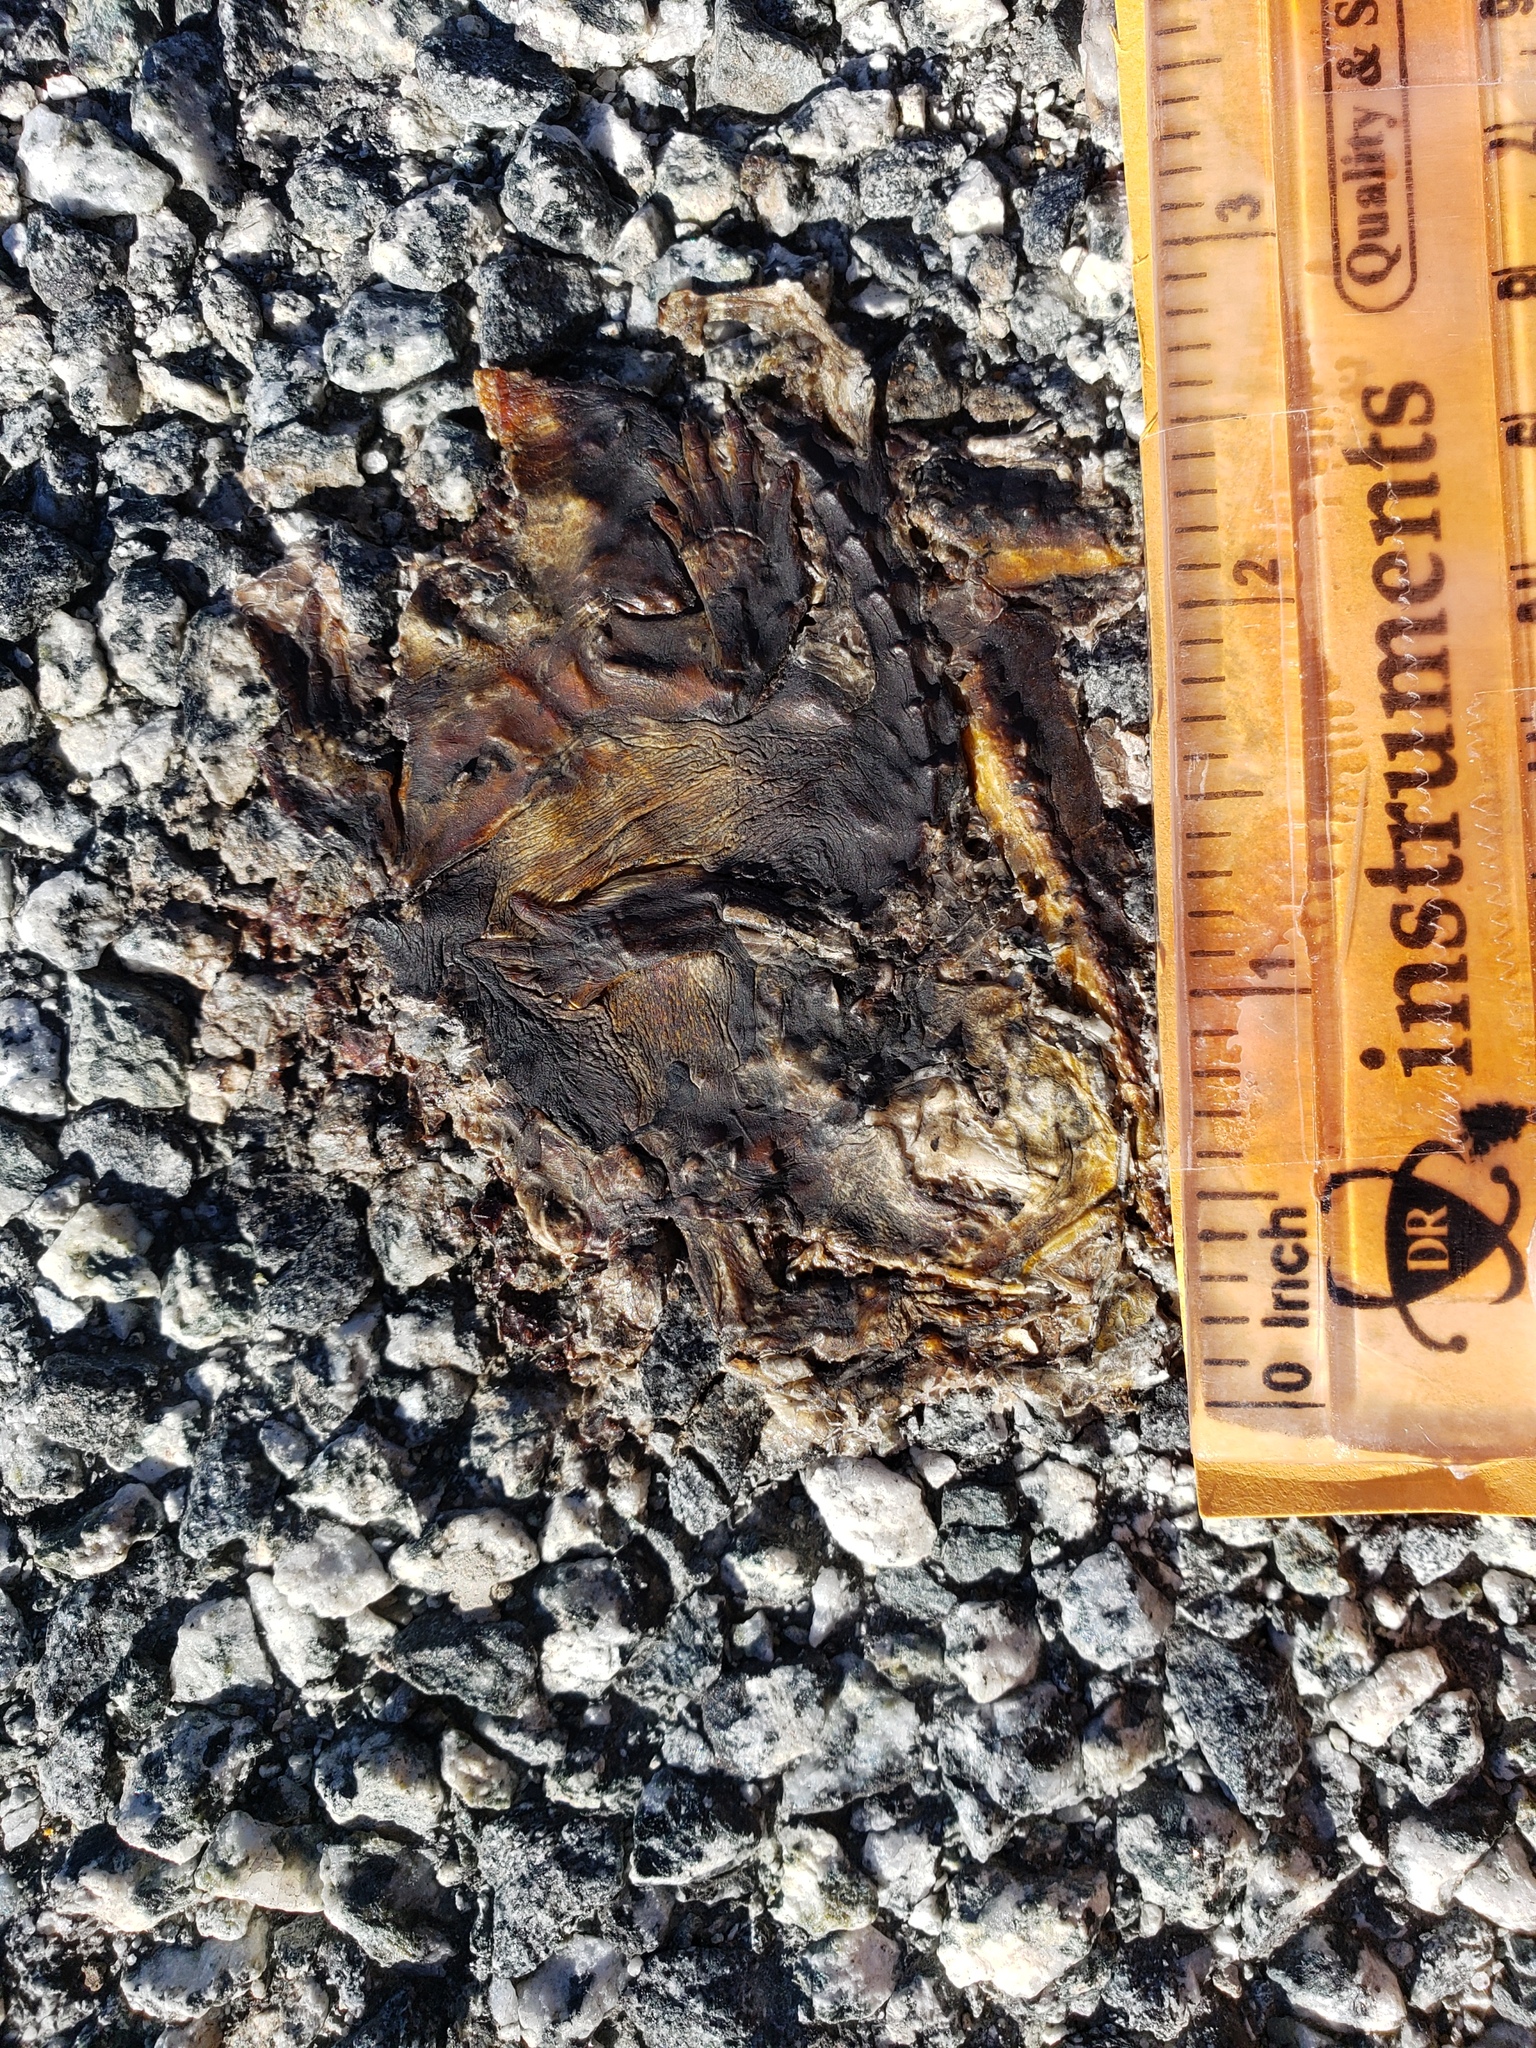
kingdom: Animalia
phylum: Chordata
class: Amphibia
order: Caudata
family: Salamandridae
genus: Taricha
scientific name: Taricha
